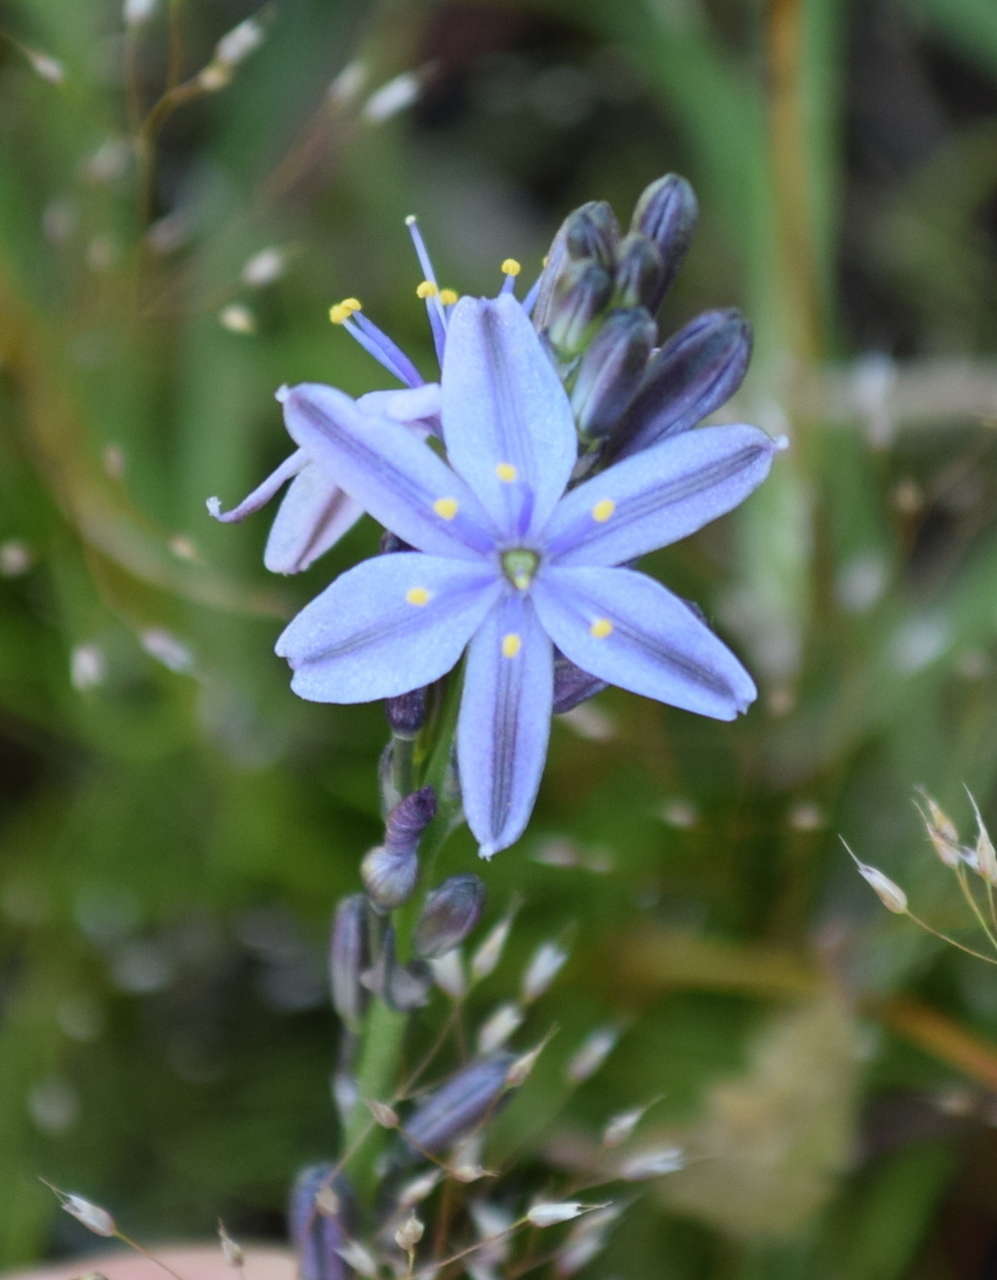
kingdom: Plantae
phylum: Tracheophyta
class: Liliopsida
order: Asparagales
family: Asphodelaceae
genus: Caesia
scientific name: Caesia calliantha
